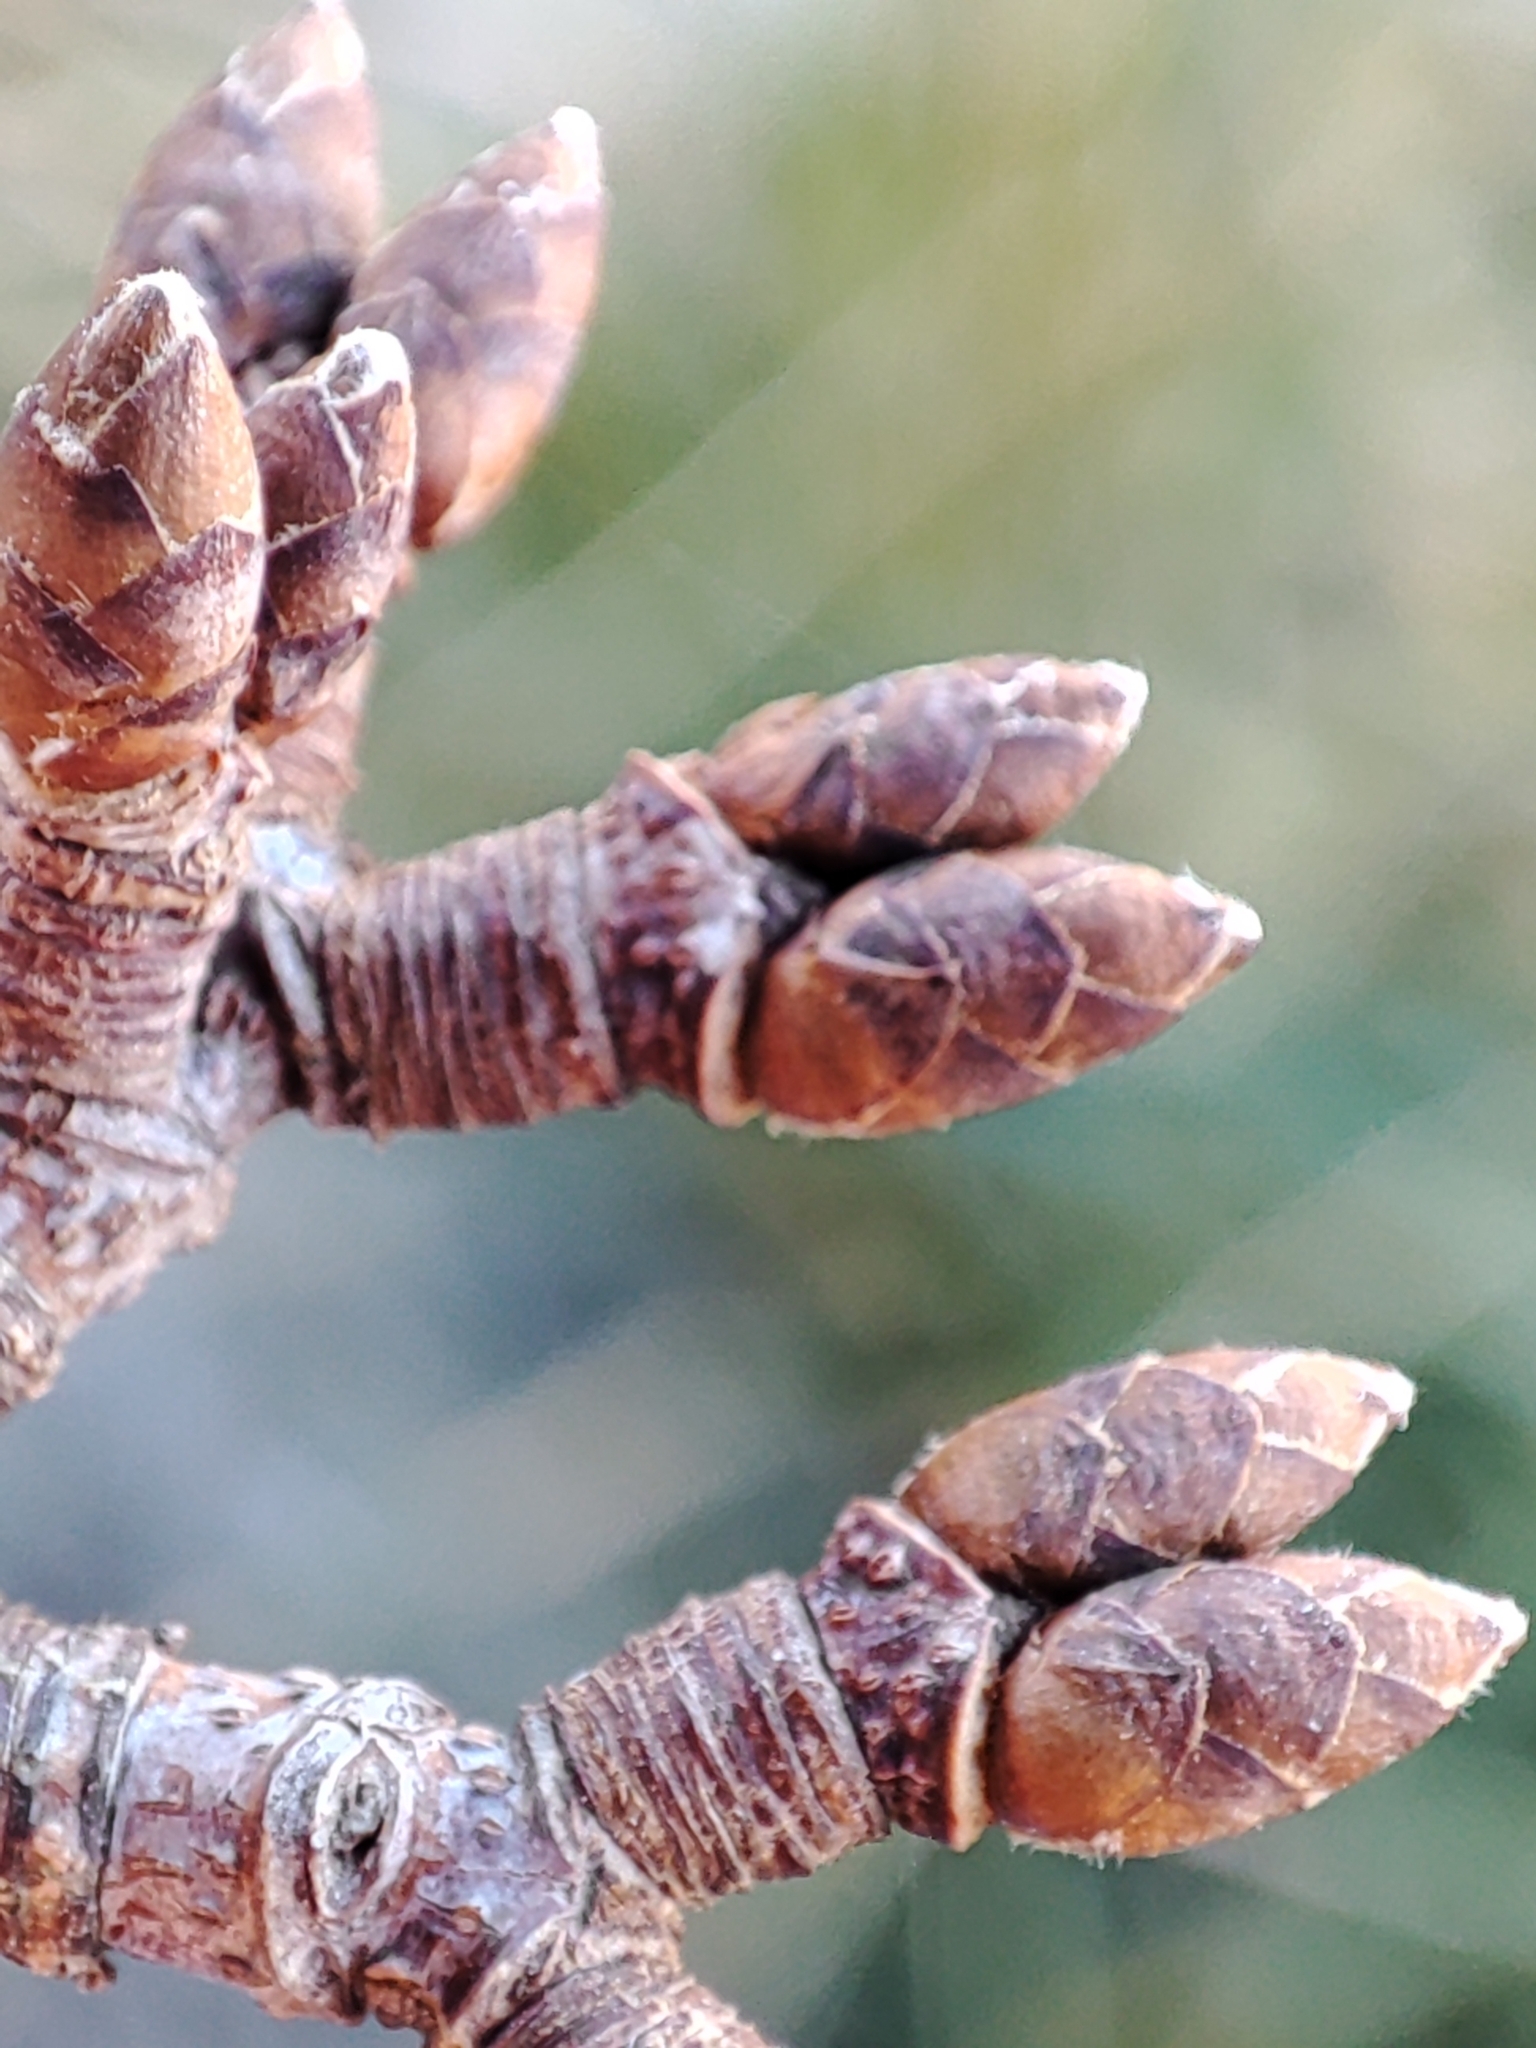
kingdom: Plantae
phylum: Tracheophyta
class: Magnoliopsida
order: Sapindales
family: Sapindaceae
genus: Acer
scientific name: Acer granatense
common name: Spanish maple
